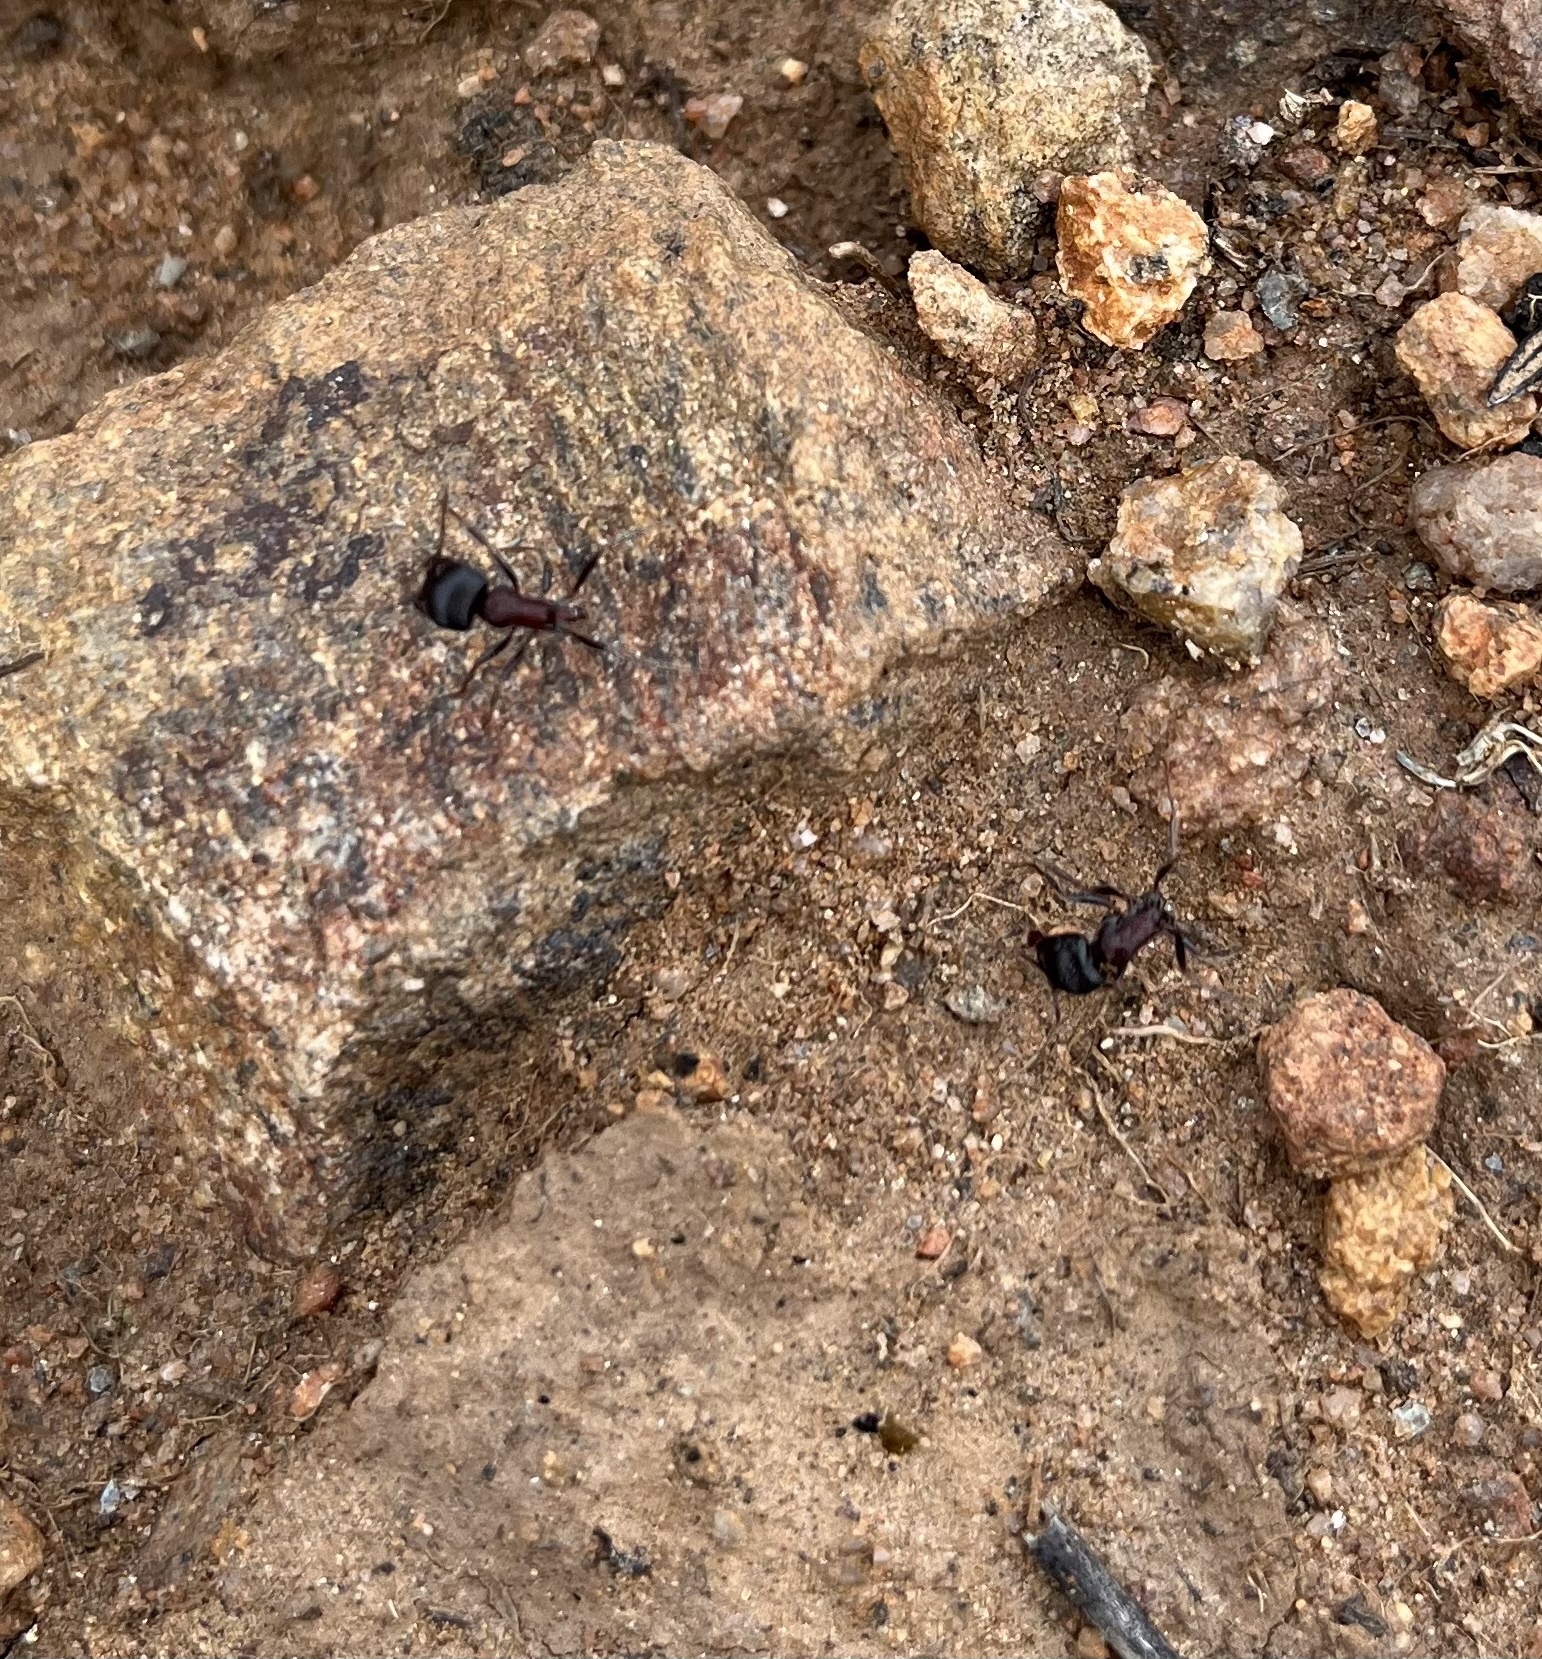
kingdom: Animalia
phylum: Arthropoda
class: Insecta
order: Hymenoptera
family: Formicidae
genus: Pogonomyrmex
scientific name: Pogonomyrmex rugosus
